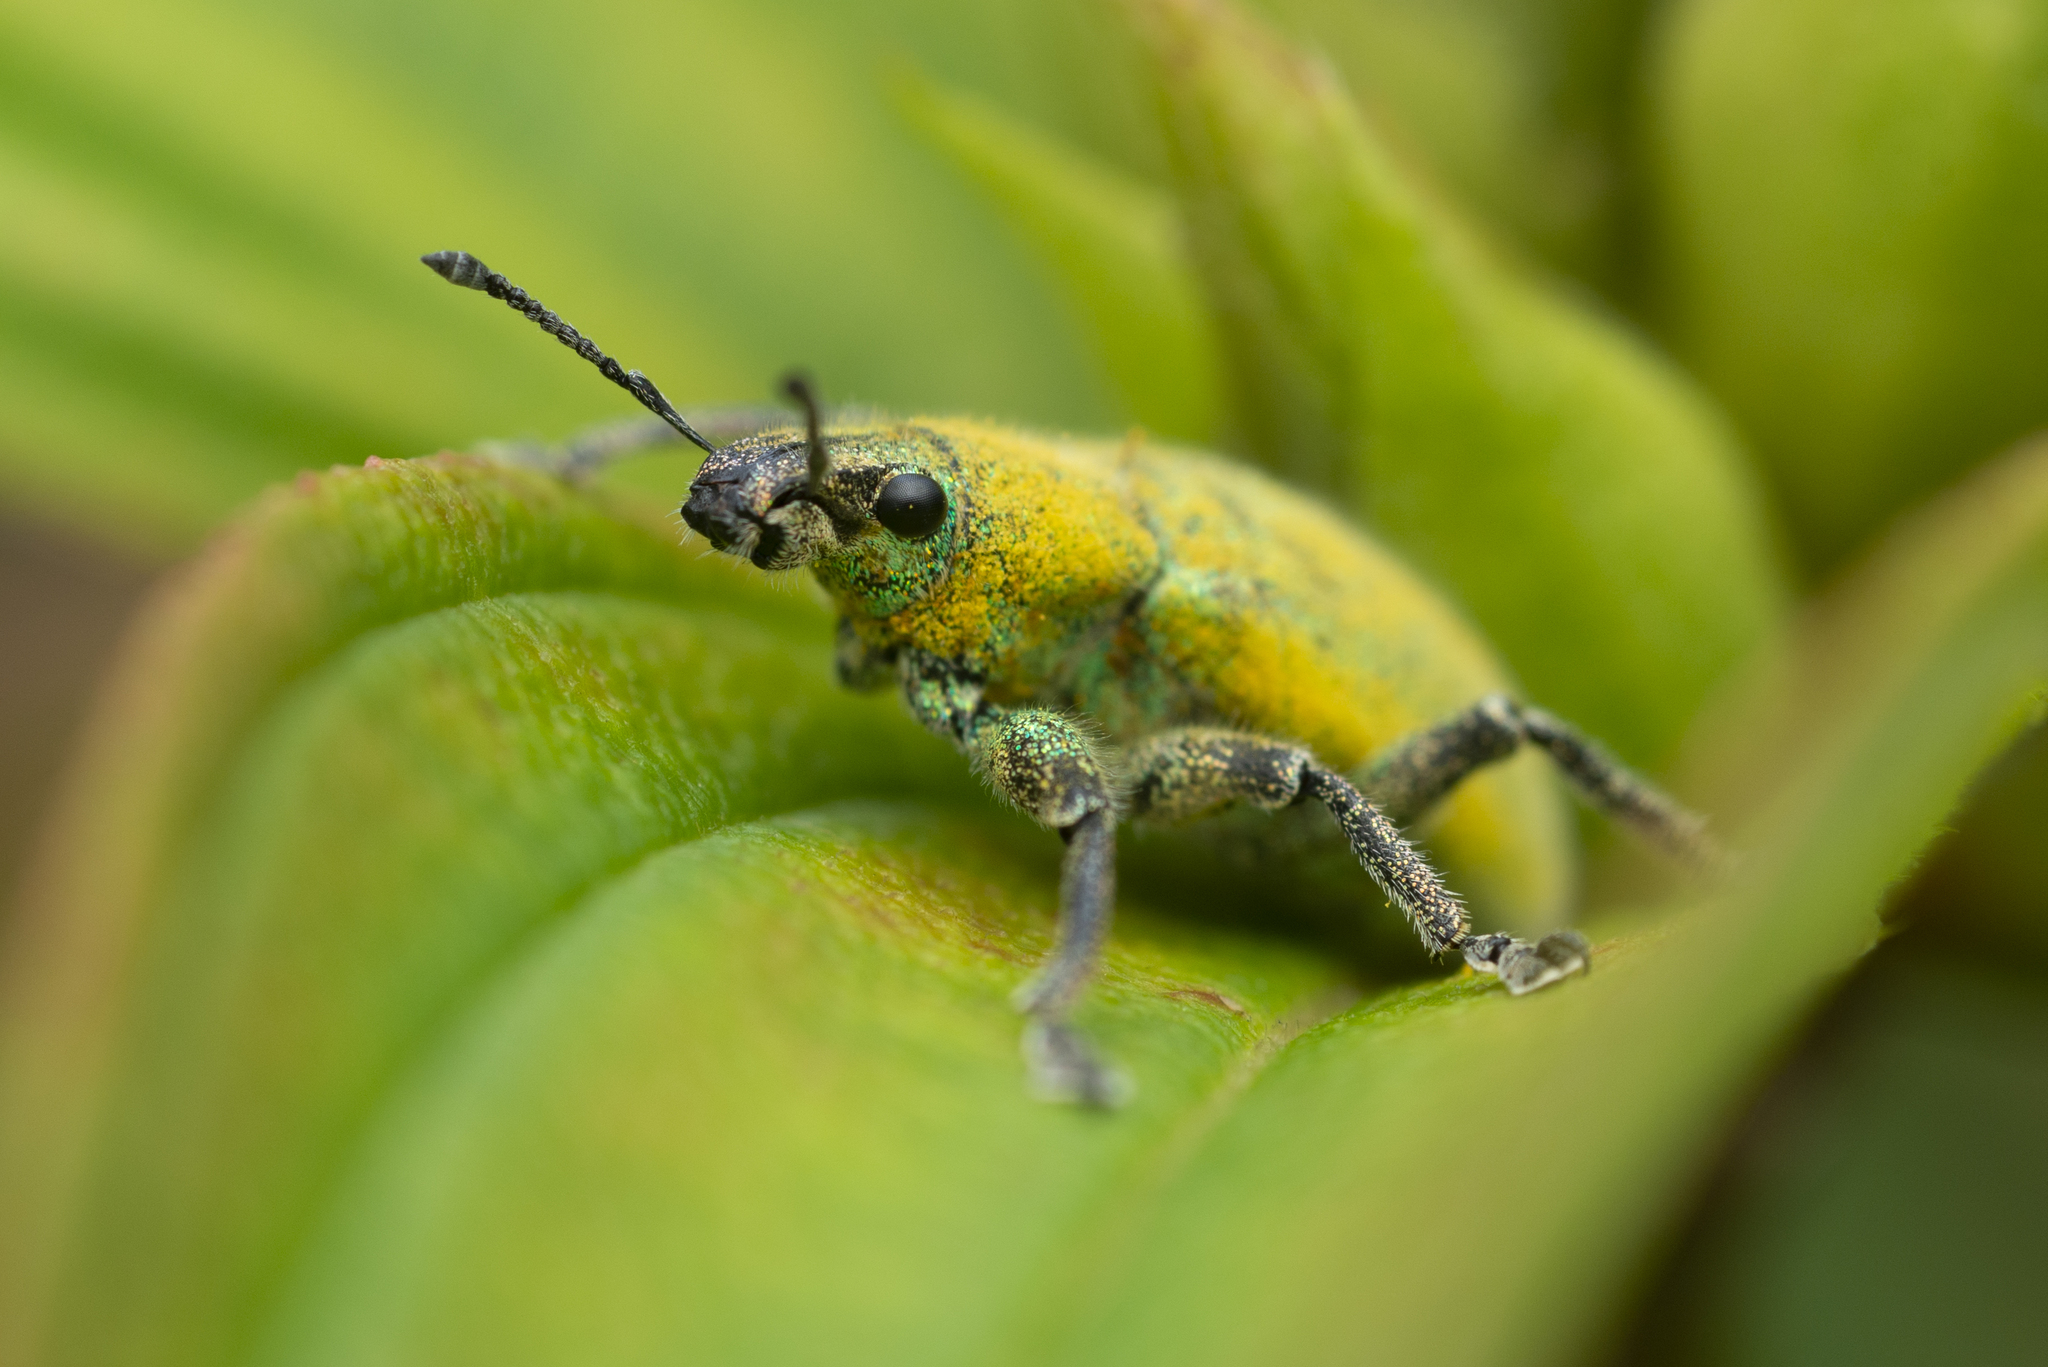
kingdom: Animalia
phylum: Arthropoda
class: Insecta
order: Coleoptera
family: Curculionidae
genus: Hypomeces
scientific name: Hypomeces pulviger
